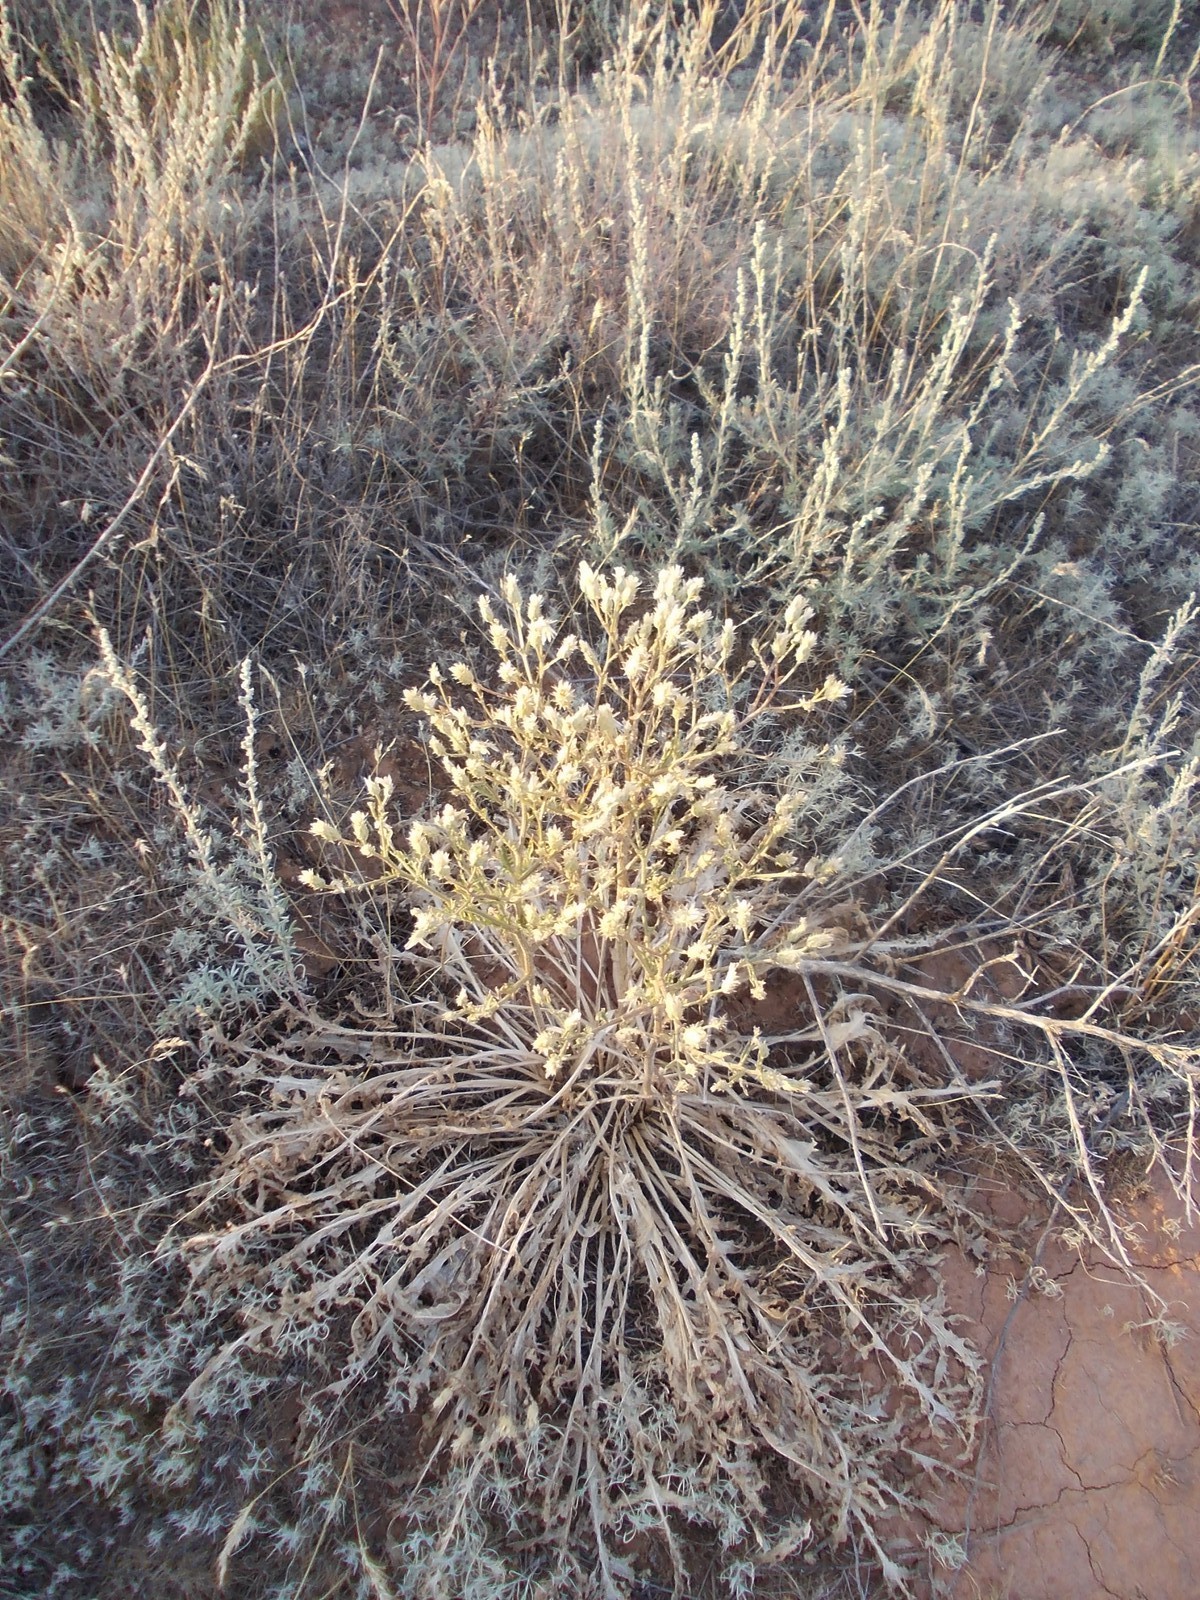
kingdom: Plantae
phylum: Tracheophyta
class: Magnoliopsida
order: Asterales
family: Asteraceae
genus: Klasea
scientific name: Klasea erucifolia
